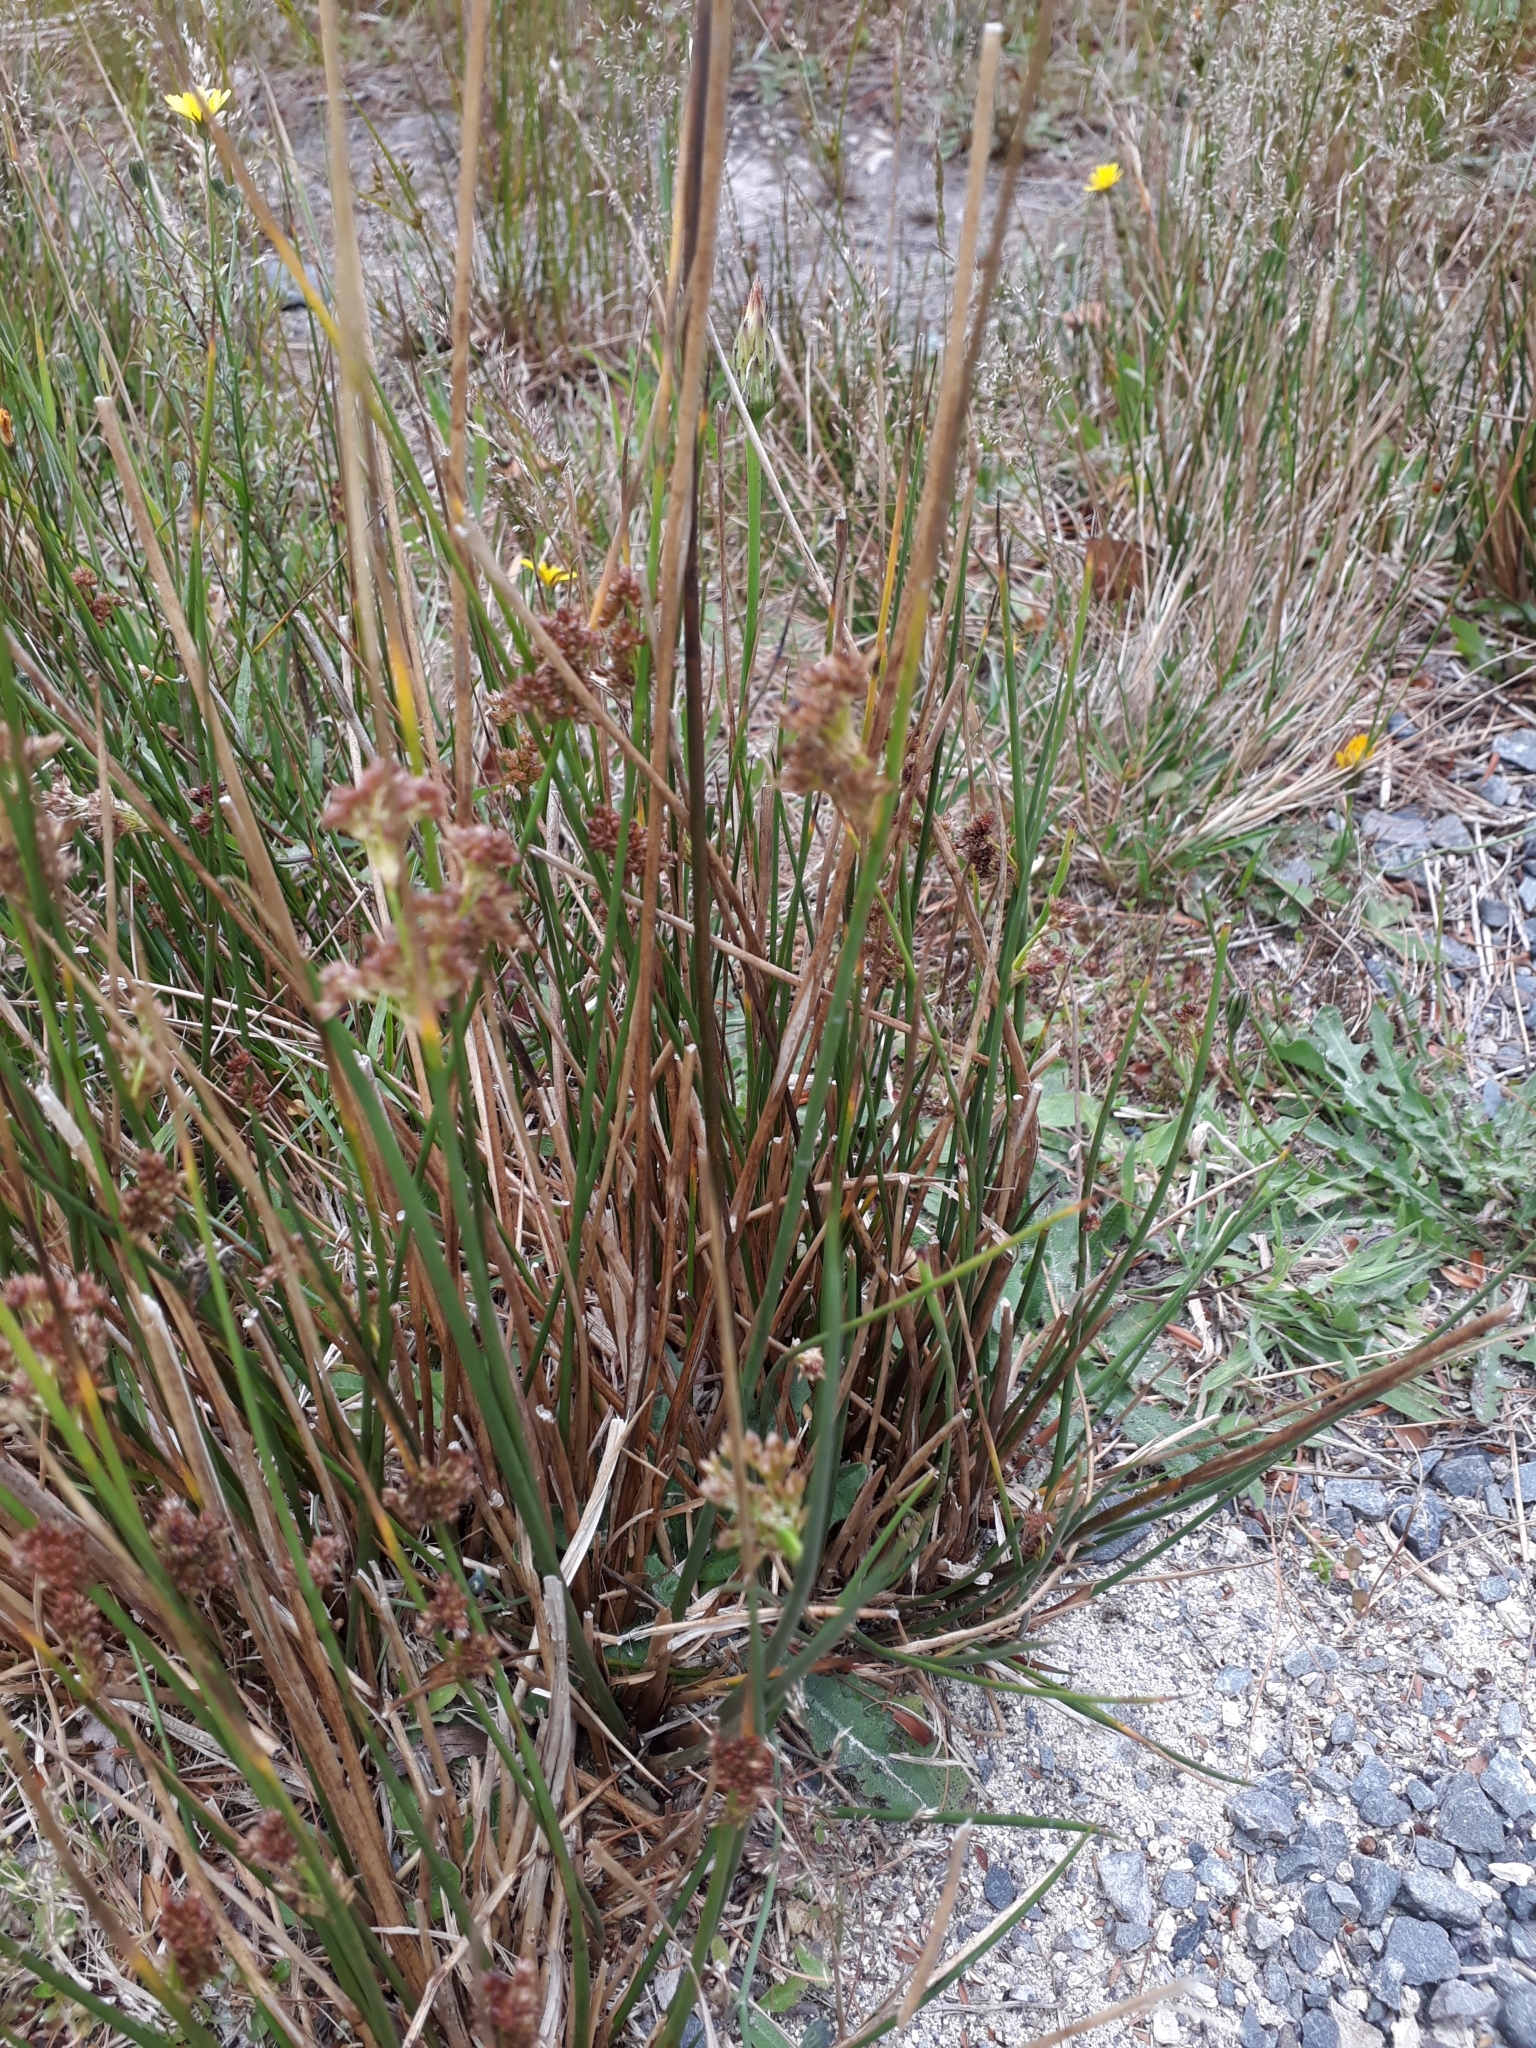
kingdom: Plantae
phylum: Tracheophyta
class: Liliopsida
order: Poales
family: Juncaceae
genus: Juncus
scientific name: Juncus effusus
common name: Soft rush
